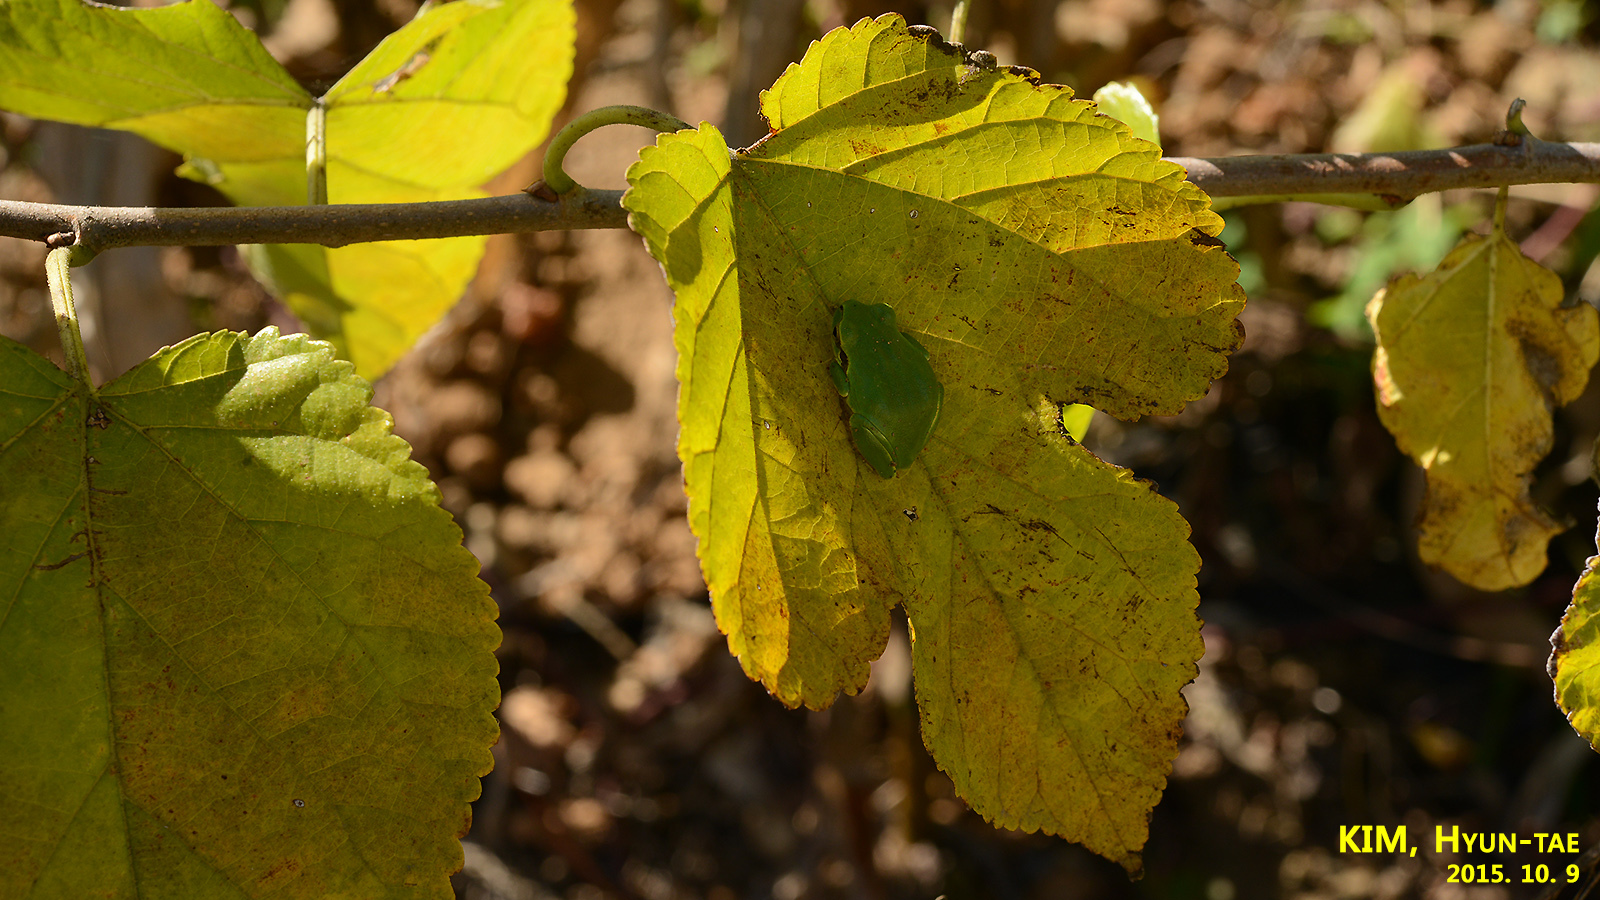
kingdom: Animalia
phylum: Chordata
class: Amphibia
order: Anura
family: Hylidae
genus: Dryophytes
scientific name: Dryophytes japonicus
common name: Japanese treefrog
